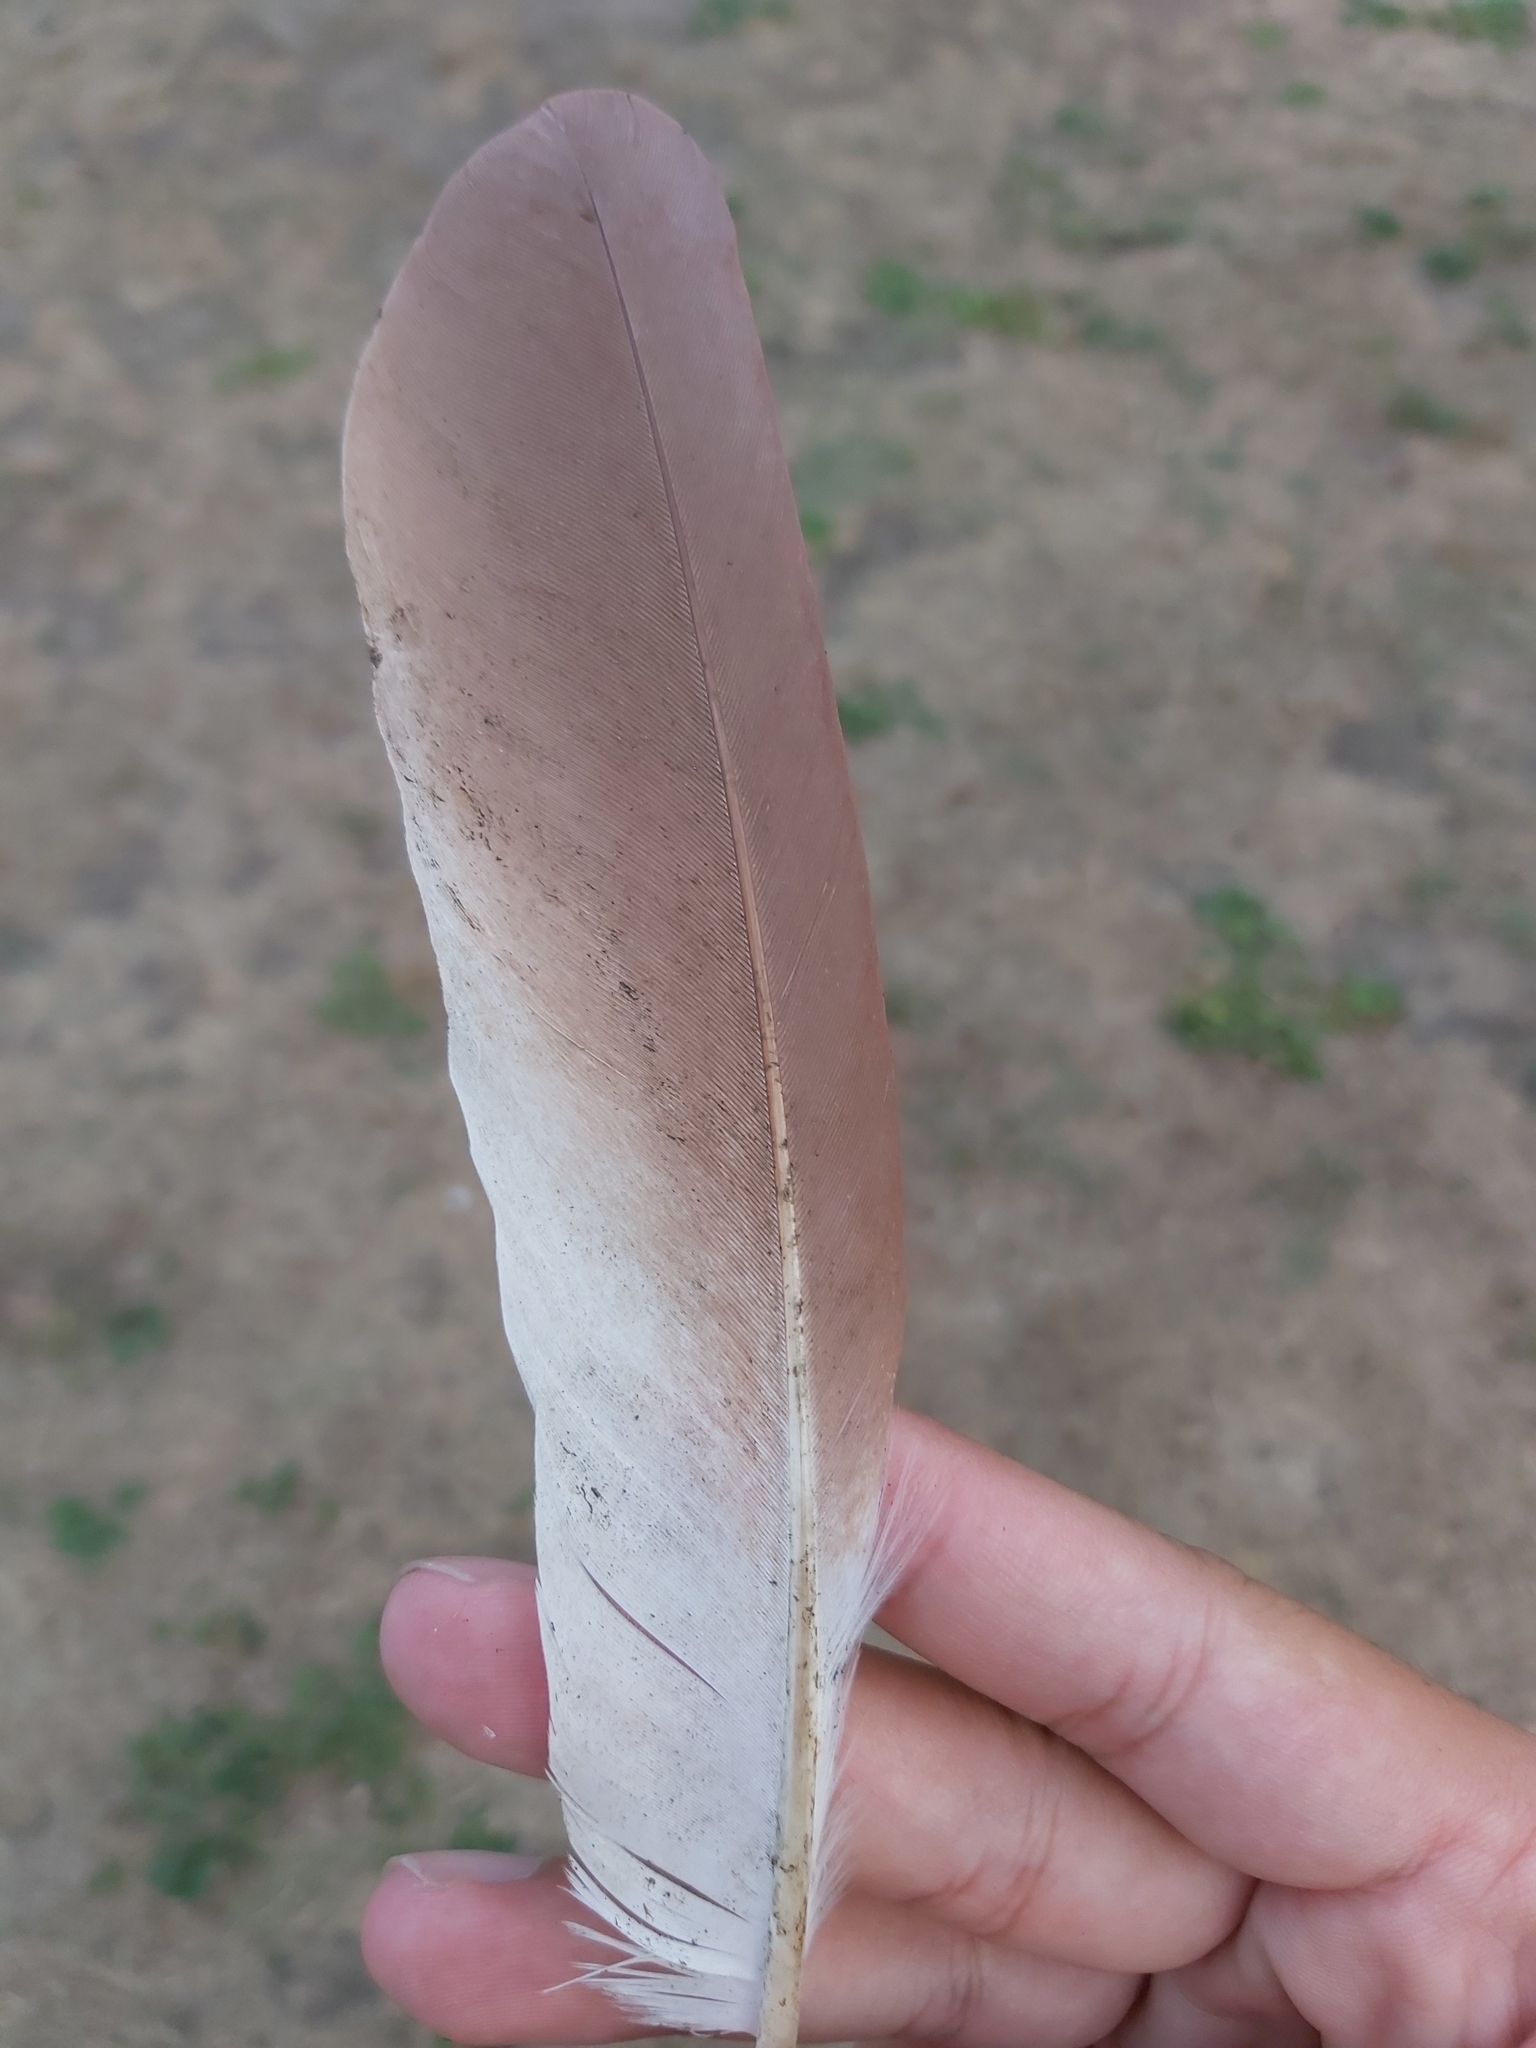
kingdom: Animalia
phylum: Chordata
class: Aves
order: Pelecaniformes
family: Ardeidae
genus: Nycticorax
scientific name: Nycticorax caledonicus
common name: Rufous night-heron
